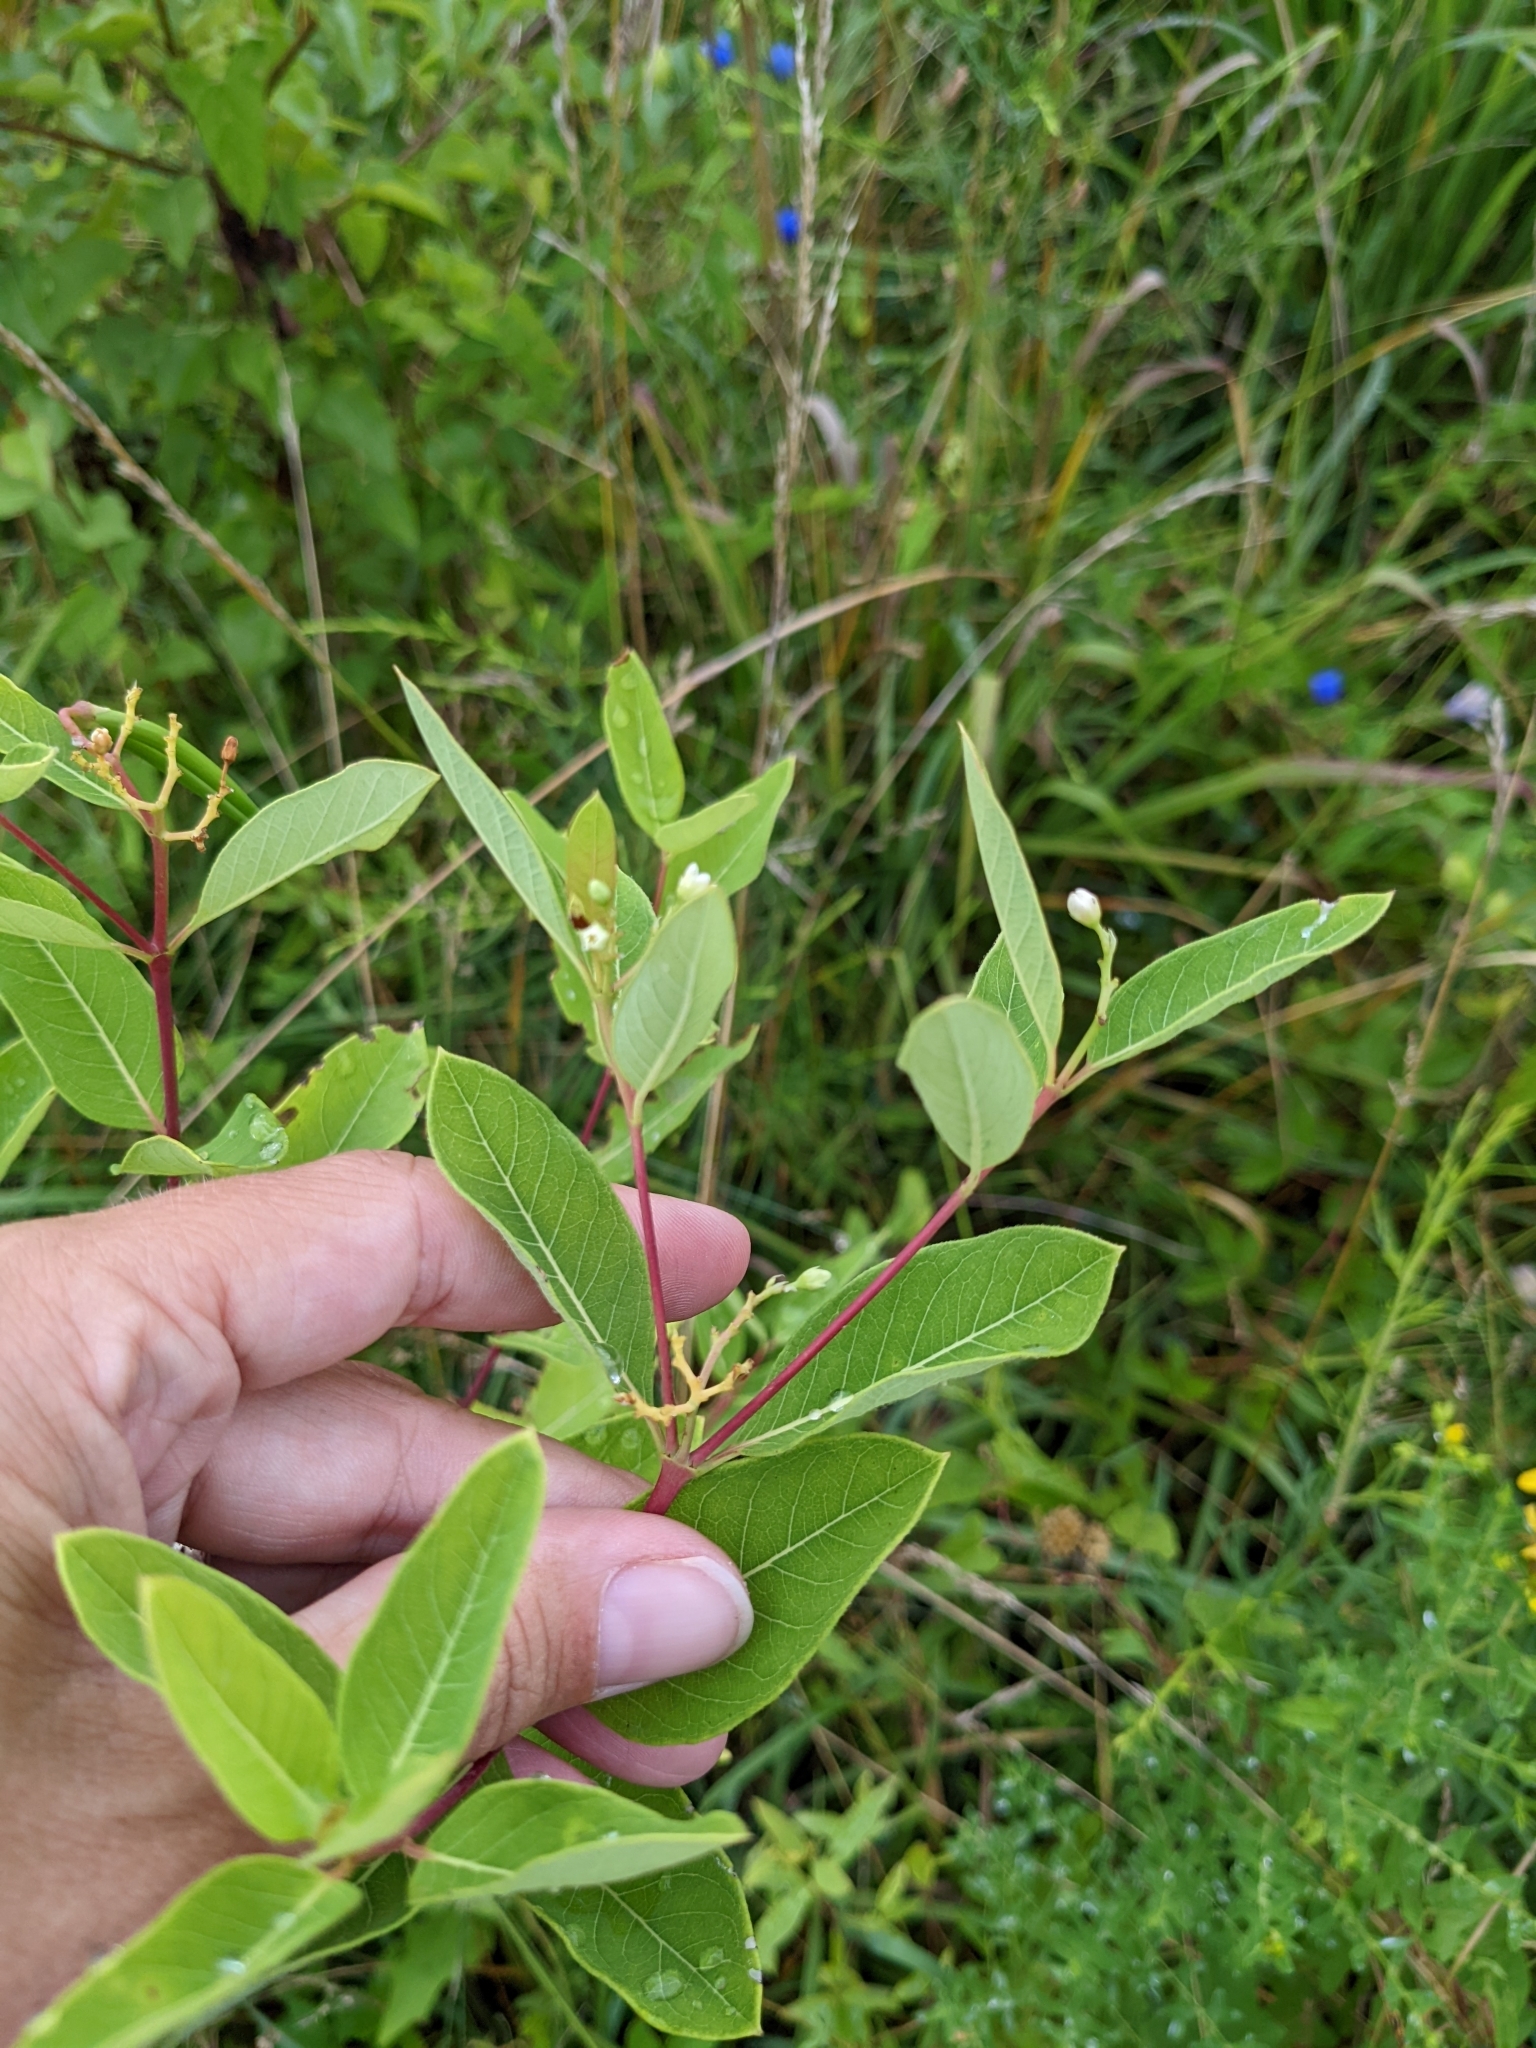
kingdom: Plantae
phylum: Tracheophyta
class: Magnoliopsida
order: Gentianales
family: Apocynaceae
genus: Apocynum
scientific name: Apocynum cannabinum
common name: Hemp dogbane
